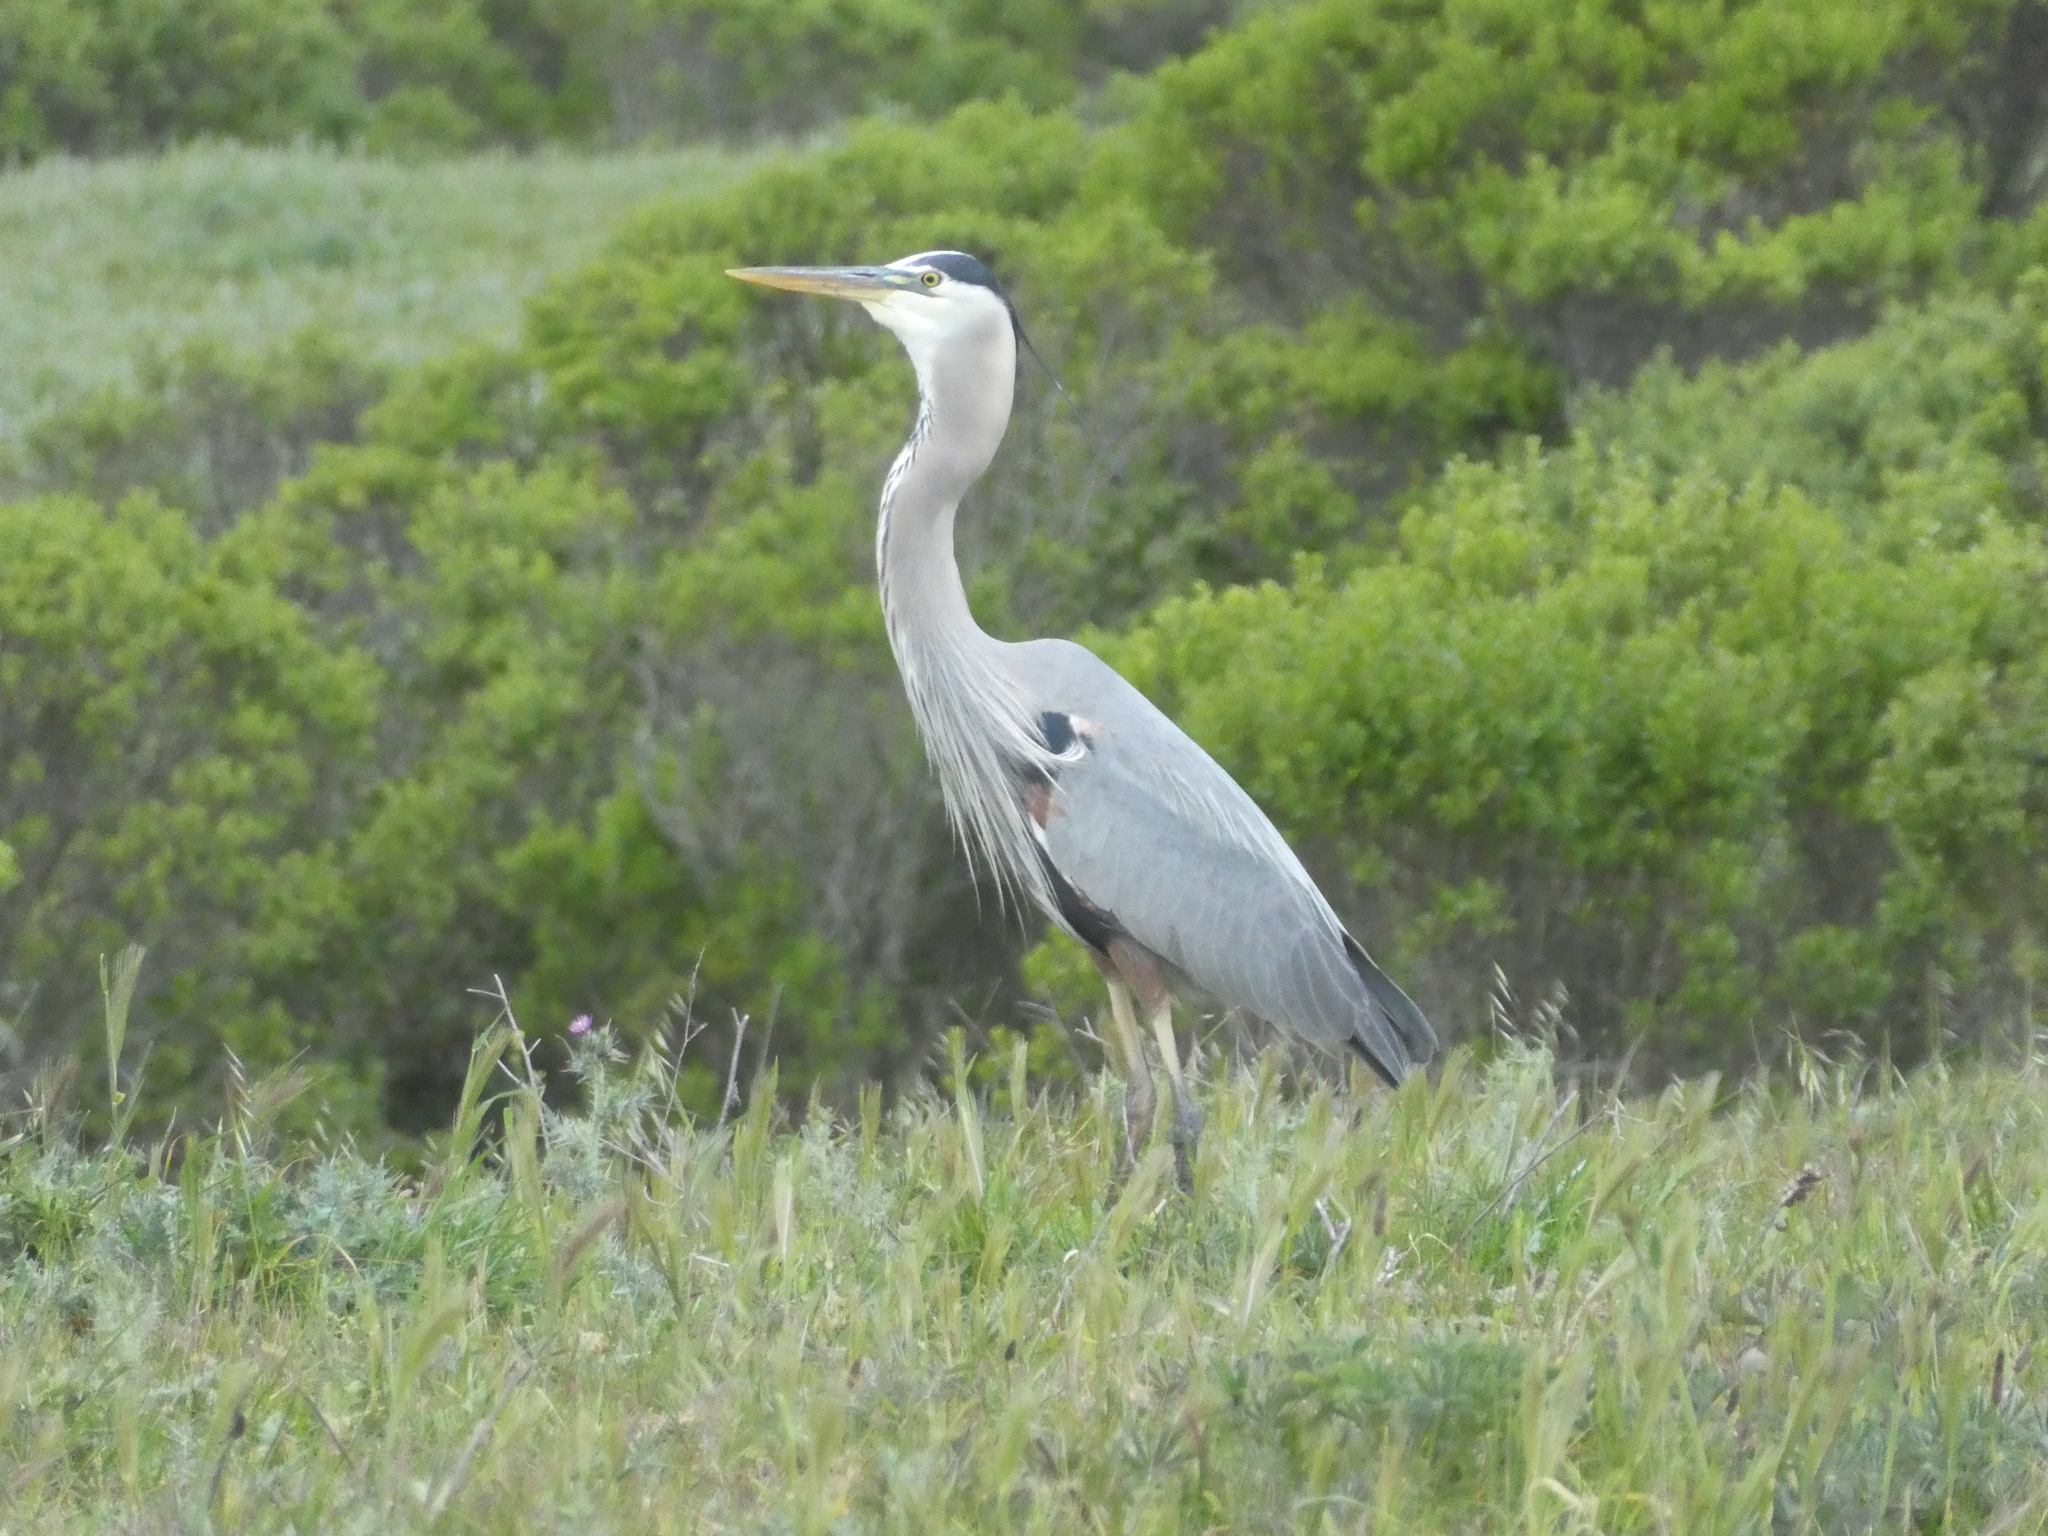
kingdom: Animalia
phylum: Chordata
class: Aves
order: Pelecaniformes
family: Ardeidae
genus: Ardea
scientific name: Ardea herodias
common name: Great blue heron
